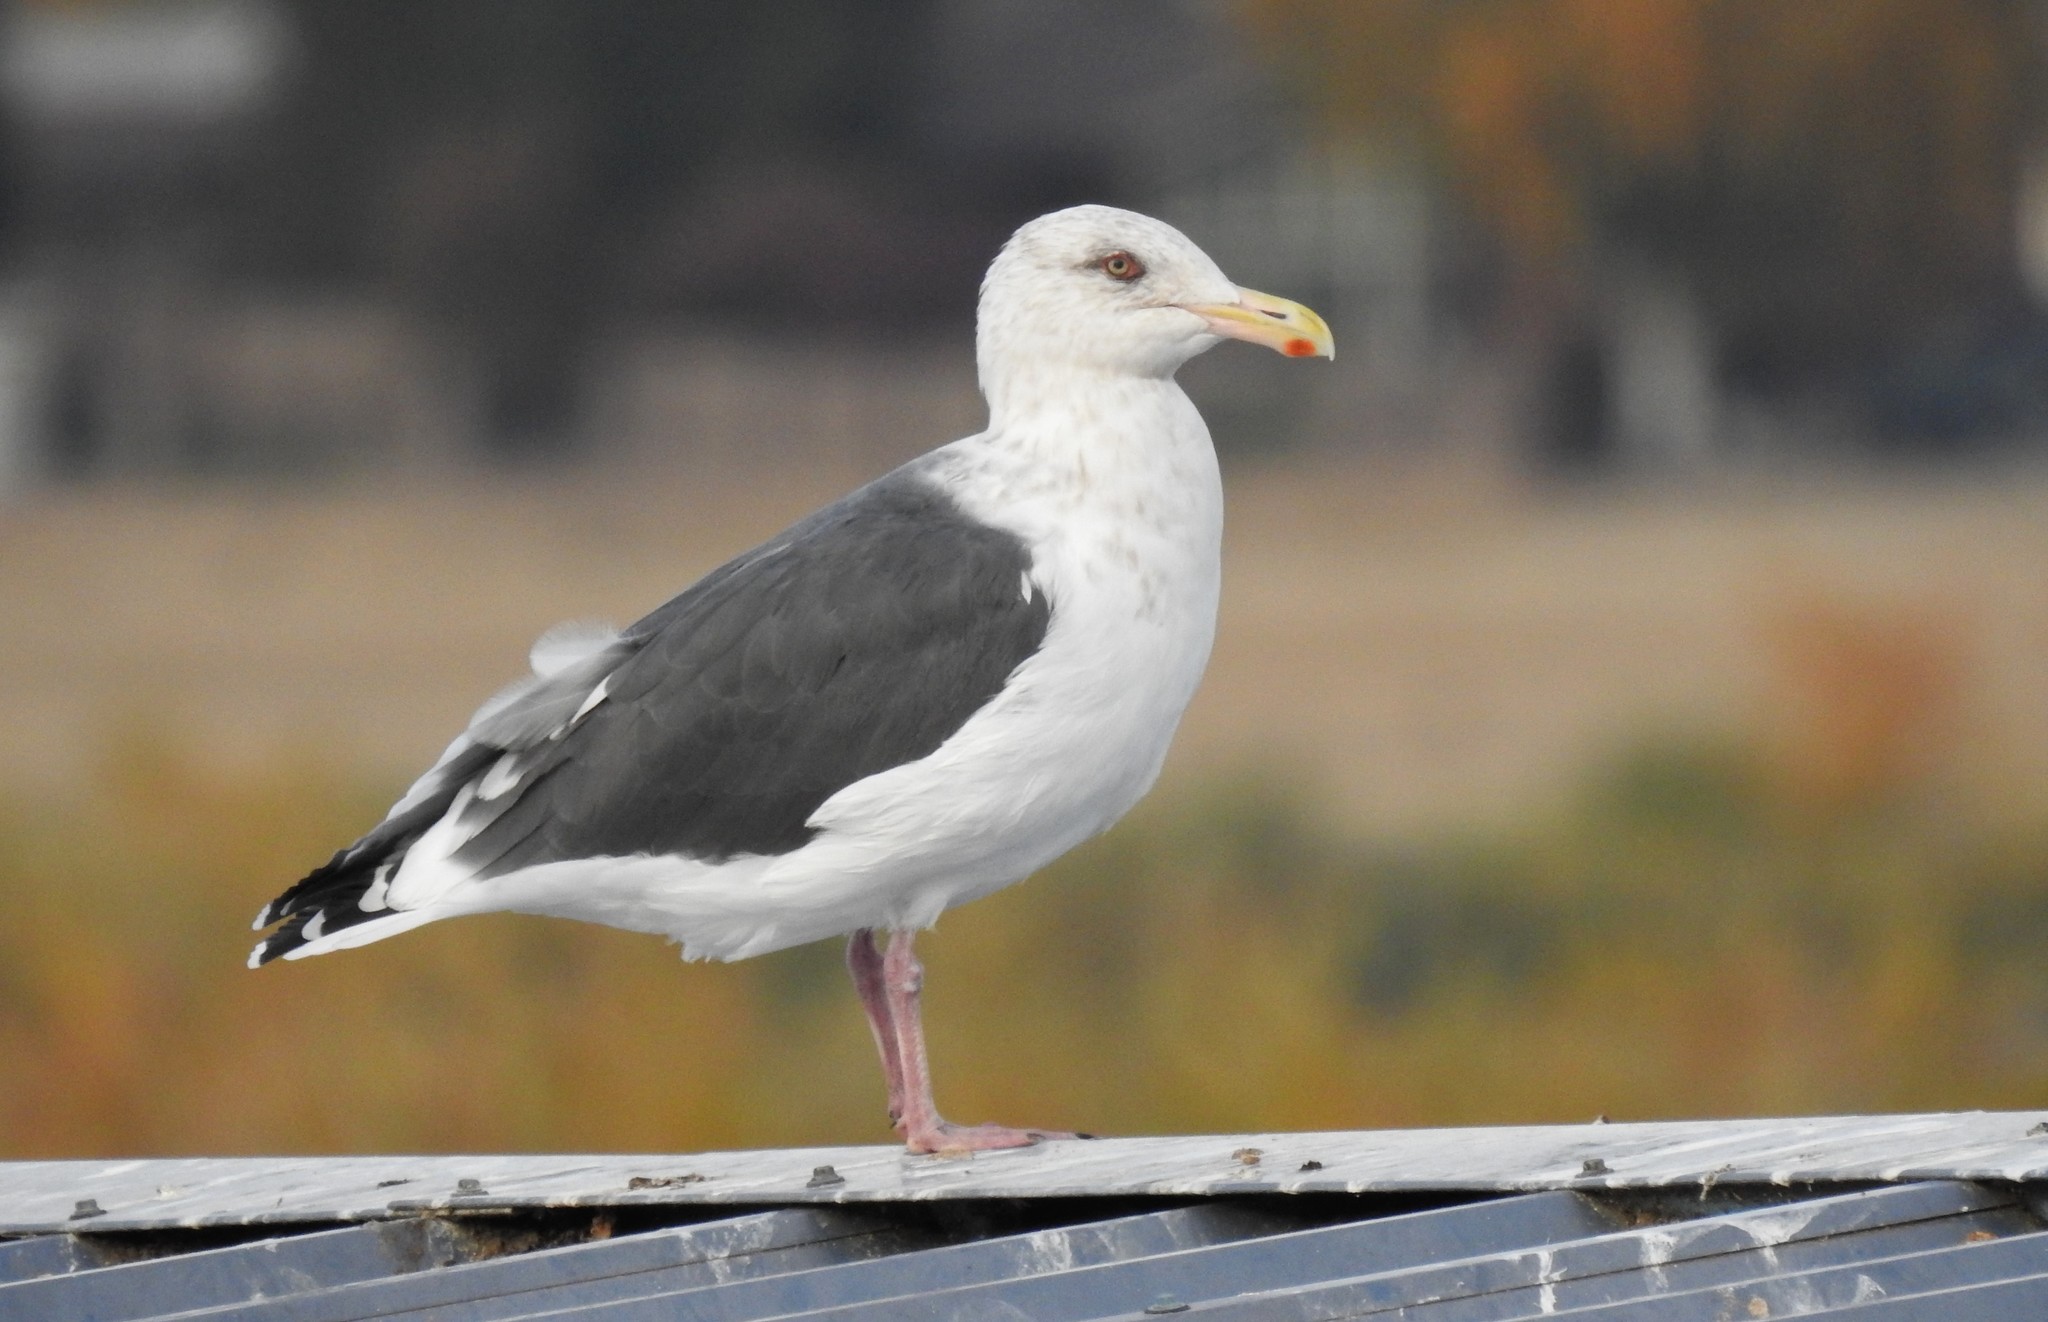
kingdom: Animalia
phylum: Chordata
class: Aves
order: Charadriiformes
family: Laridae
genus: Larus
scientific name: Larus schistisagus
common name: Slaty-backed gull
